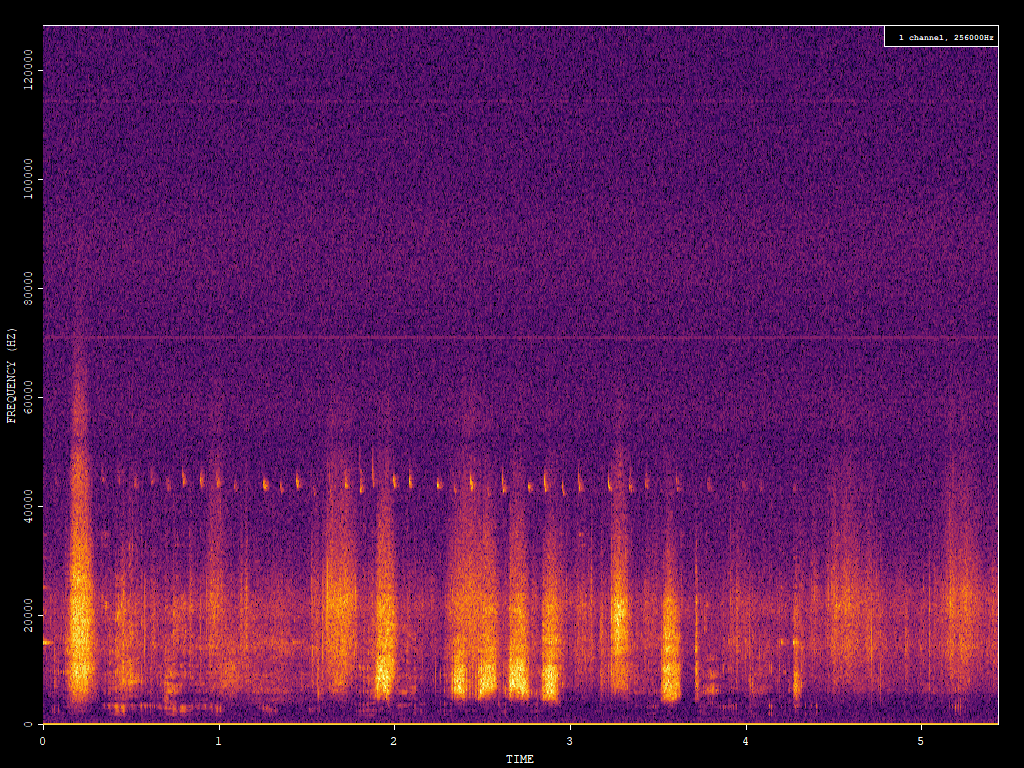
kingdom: Animalia
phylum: Chordata
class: Mammalia
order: Chiroptera
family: Vespertilionidae
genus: Pipistrellus
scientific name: Pipistrellus pipistrellus
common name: Common pipistrelle
